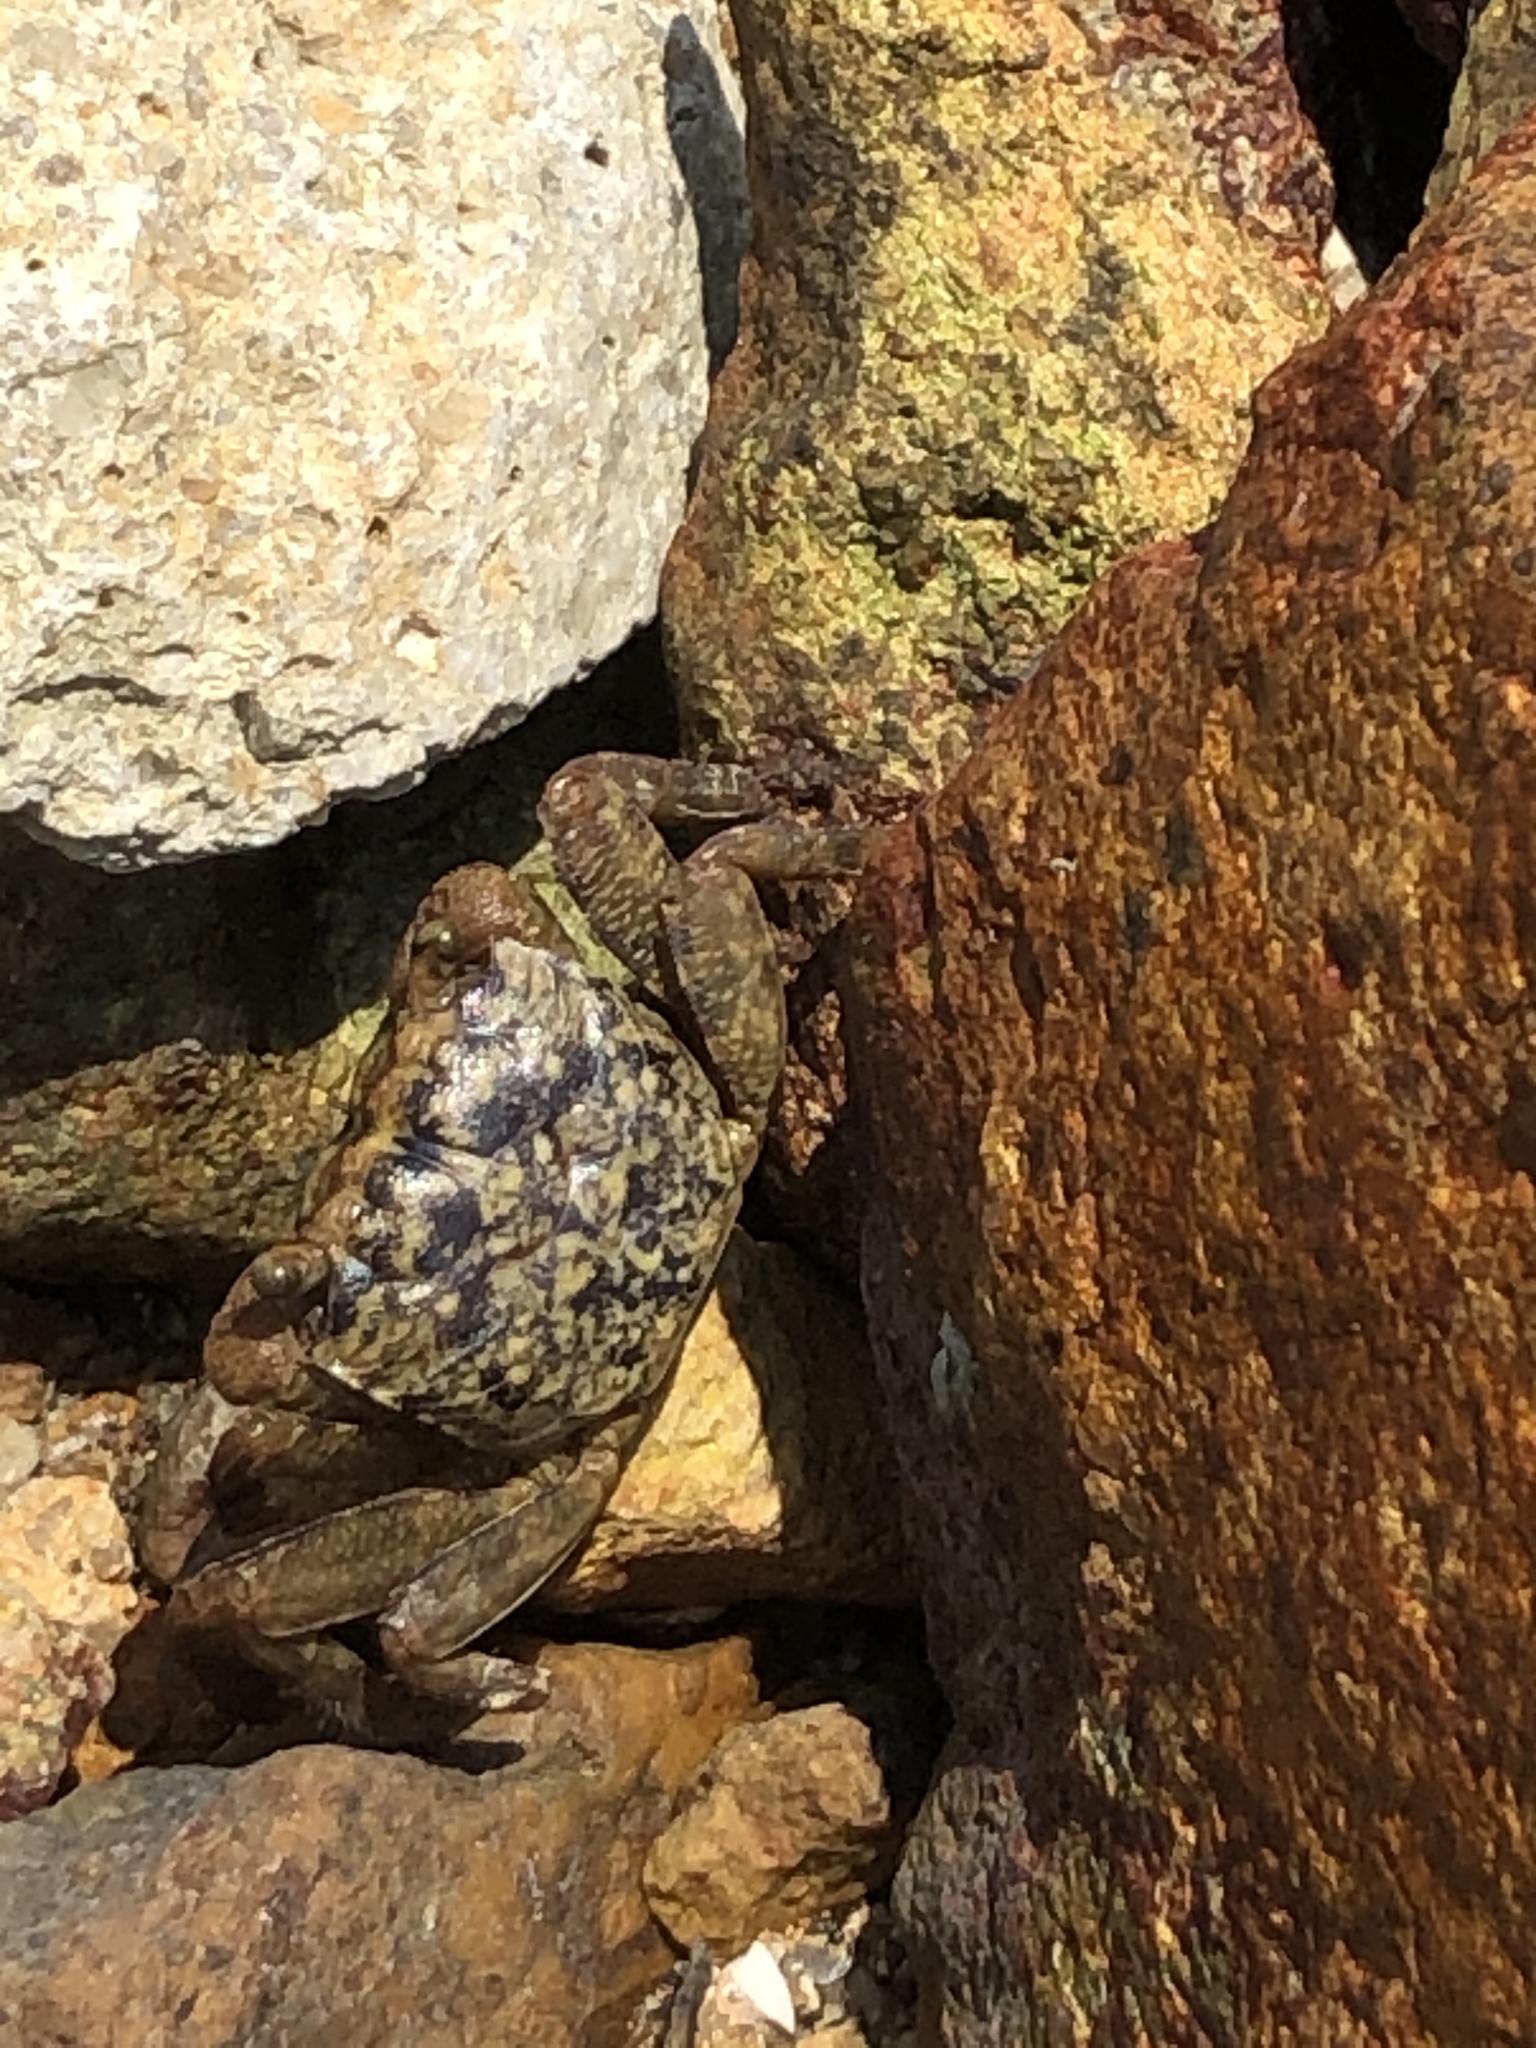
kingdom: Animalia
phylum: Arthropoda
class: Malacostraca
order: Decapoda
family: Sesarmidae
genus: Parasesarma
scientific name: Parasesarma pictum
